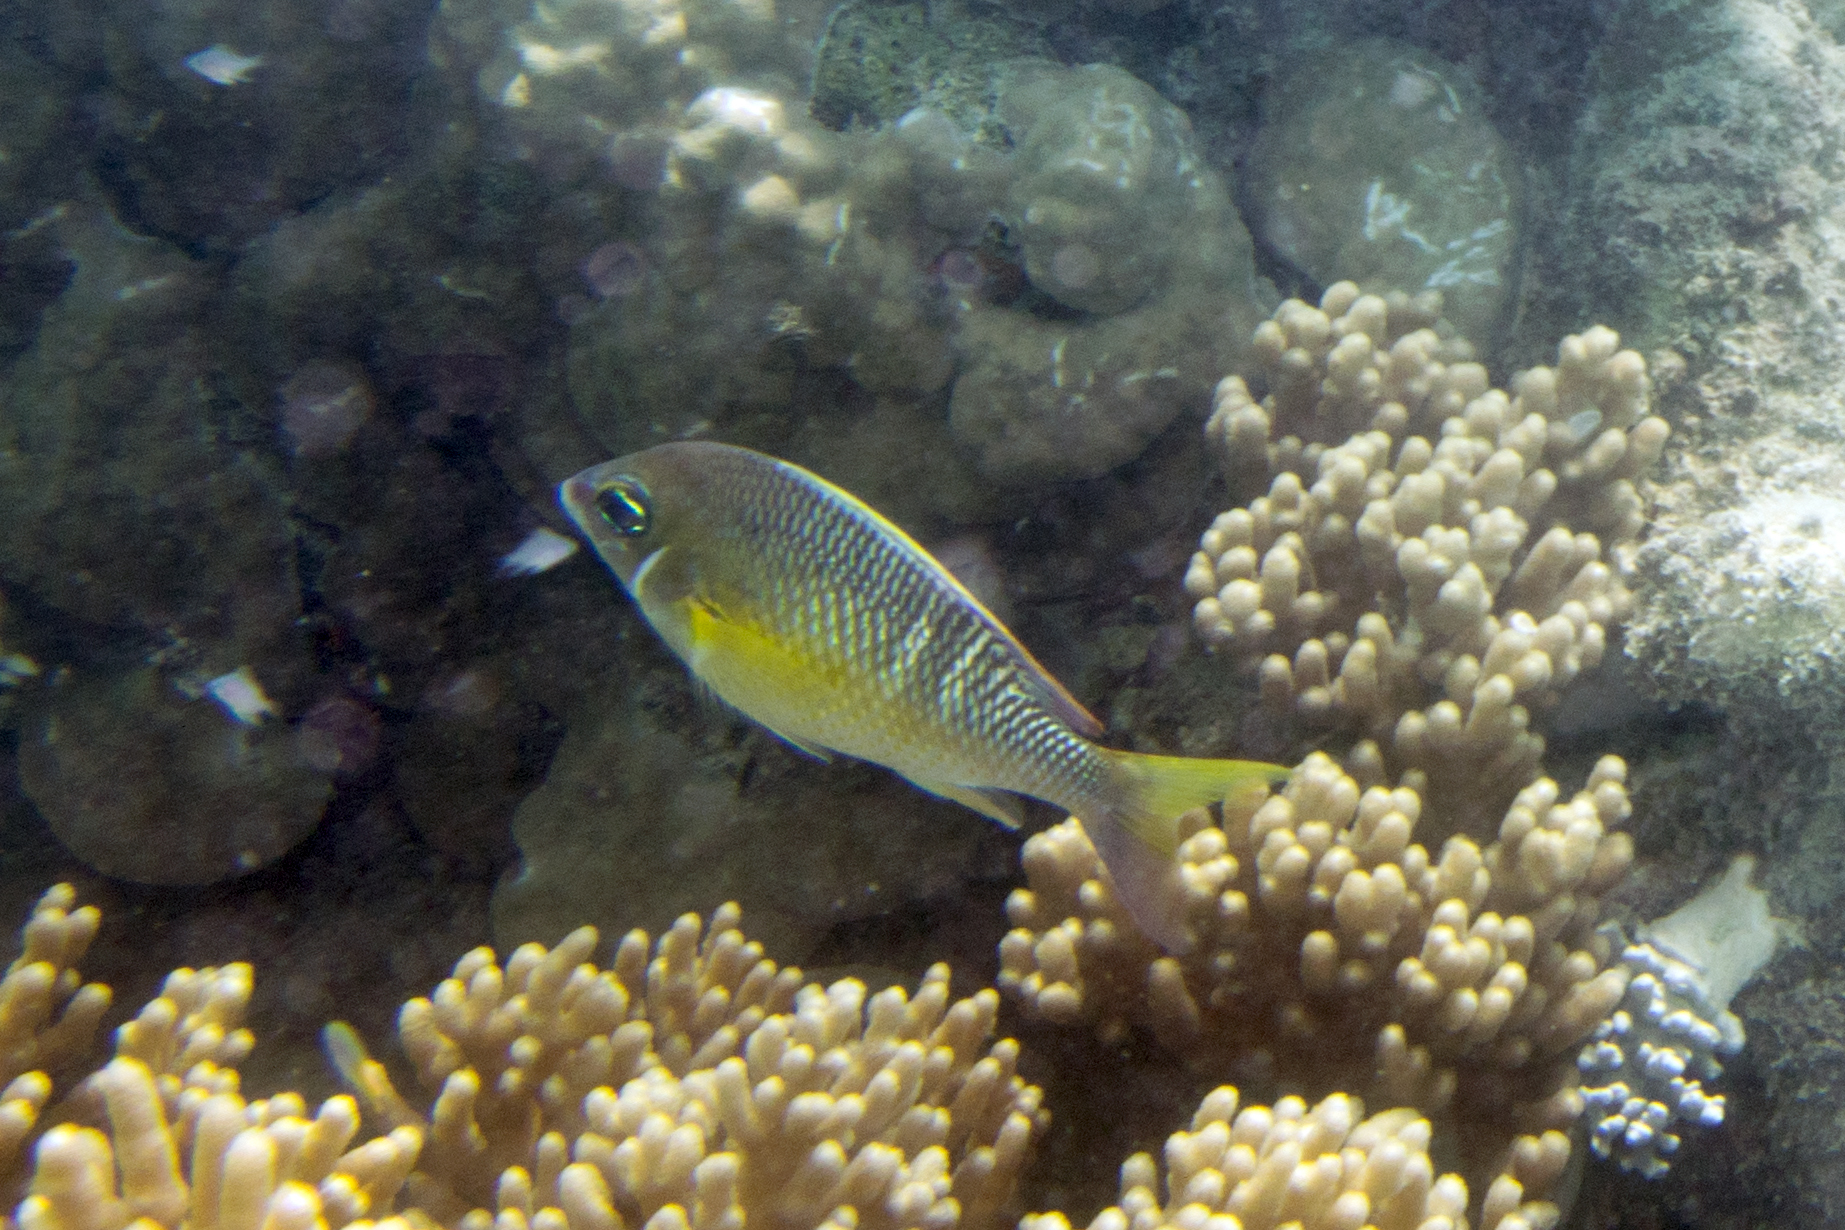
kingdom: Animalia
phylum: Chordata
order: Perciformes
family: Nemipteridae
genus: Scolopsis
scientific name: Scolopsis margaritifera
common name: Pearly monocle bream
